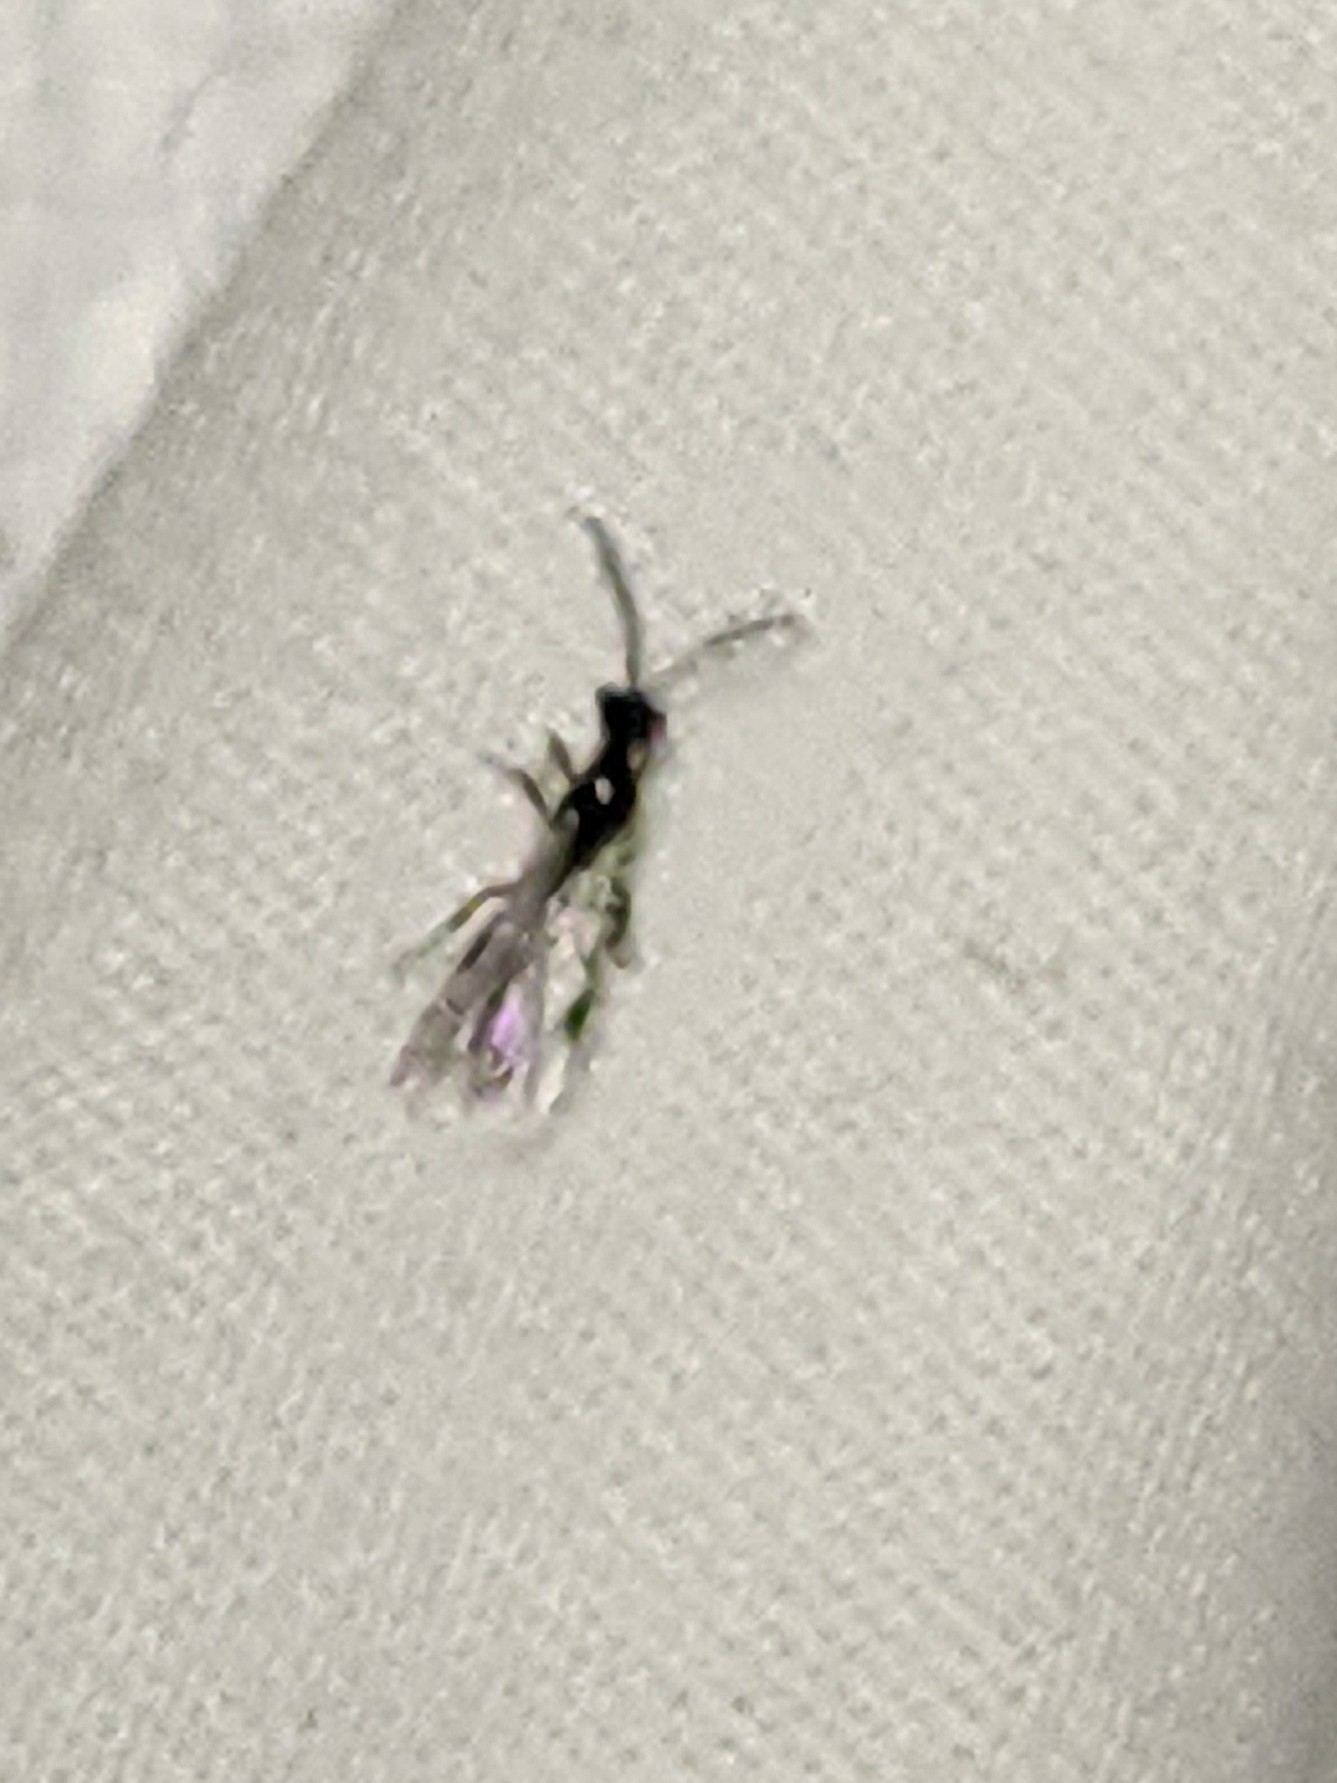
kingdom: Animalia
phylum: Arthropoda
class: Insecta
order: Hymenoptera
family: Formicidae
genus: Acanthostichus
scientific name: Acanthostichus
